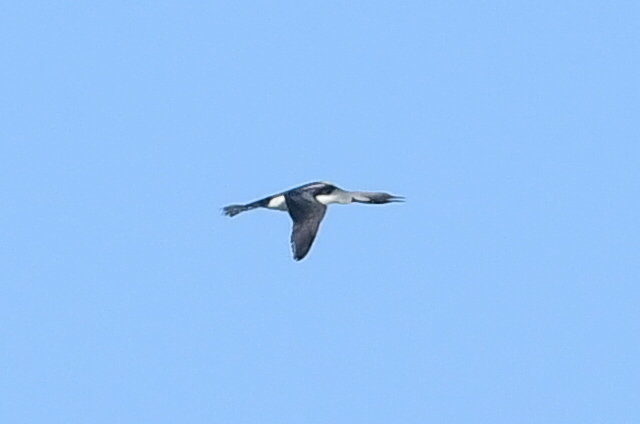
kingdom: Animalia
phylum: Chordata
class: Aves
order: Gaviiformes
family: Gaviidae
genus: Gavia
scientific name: Gavia arctica
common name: Black-throated loon
